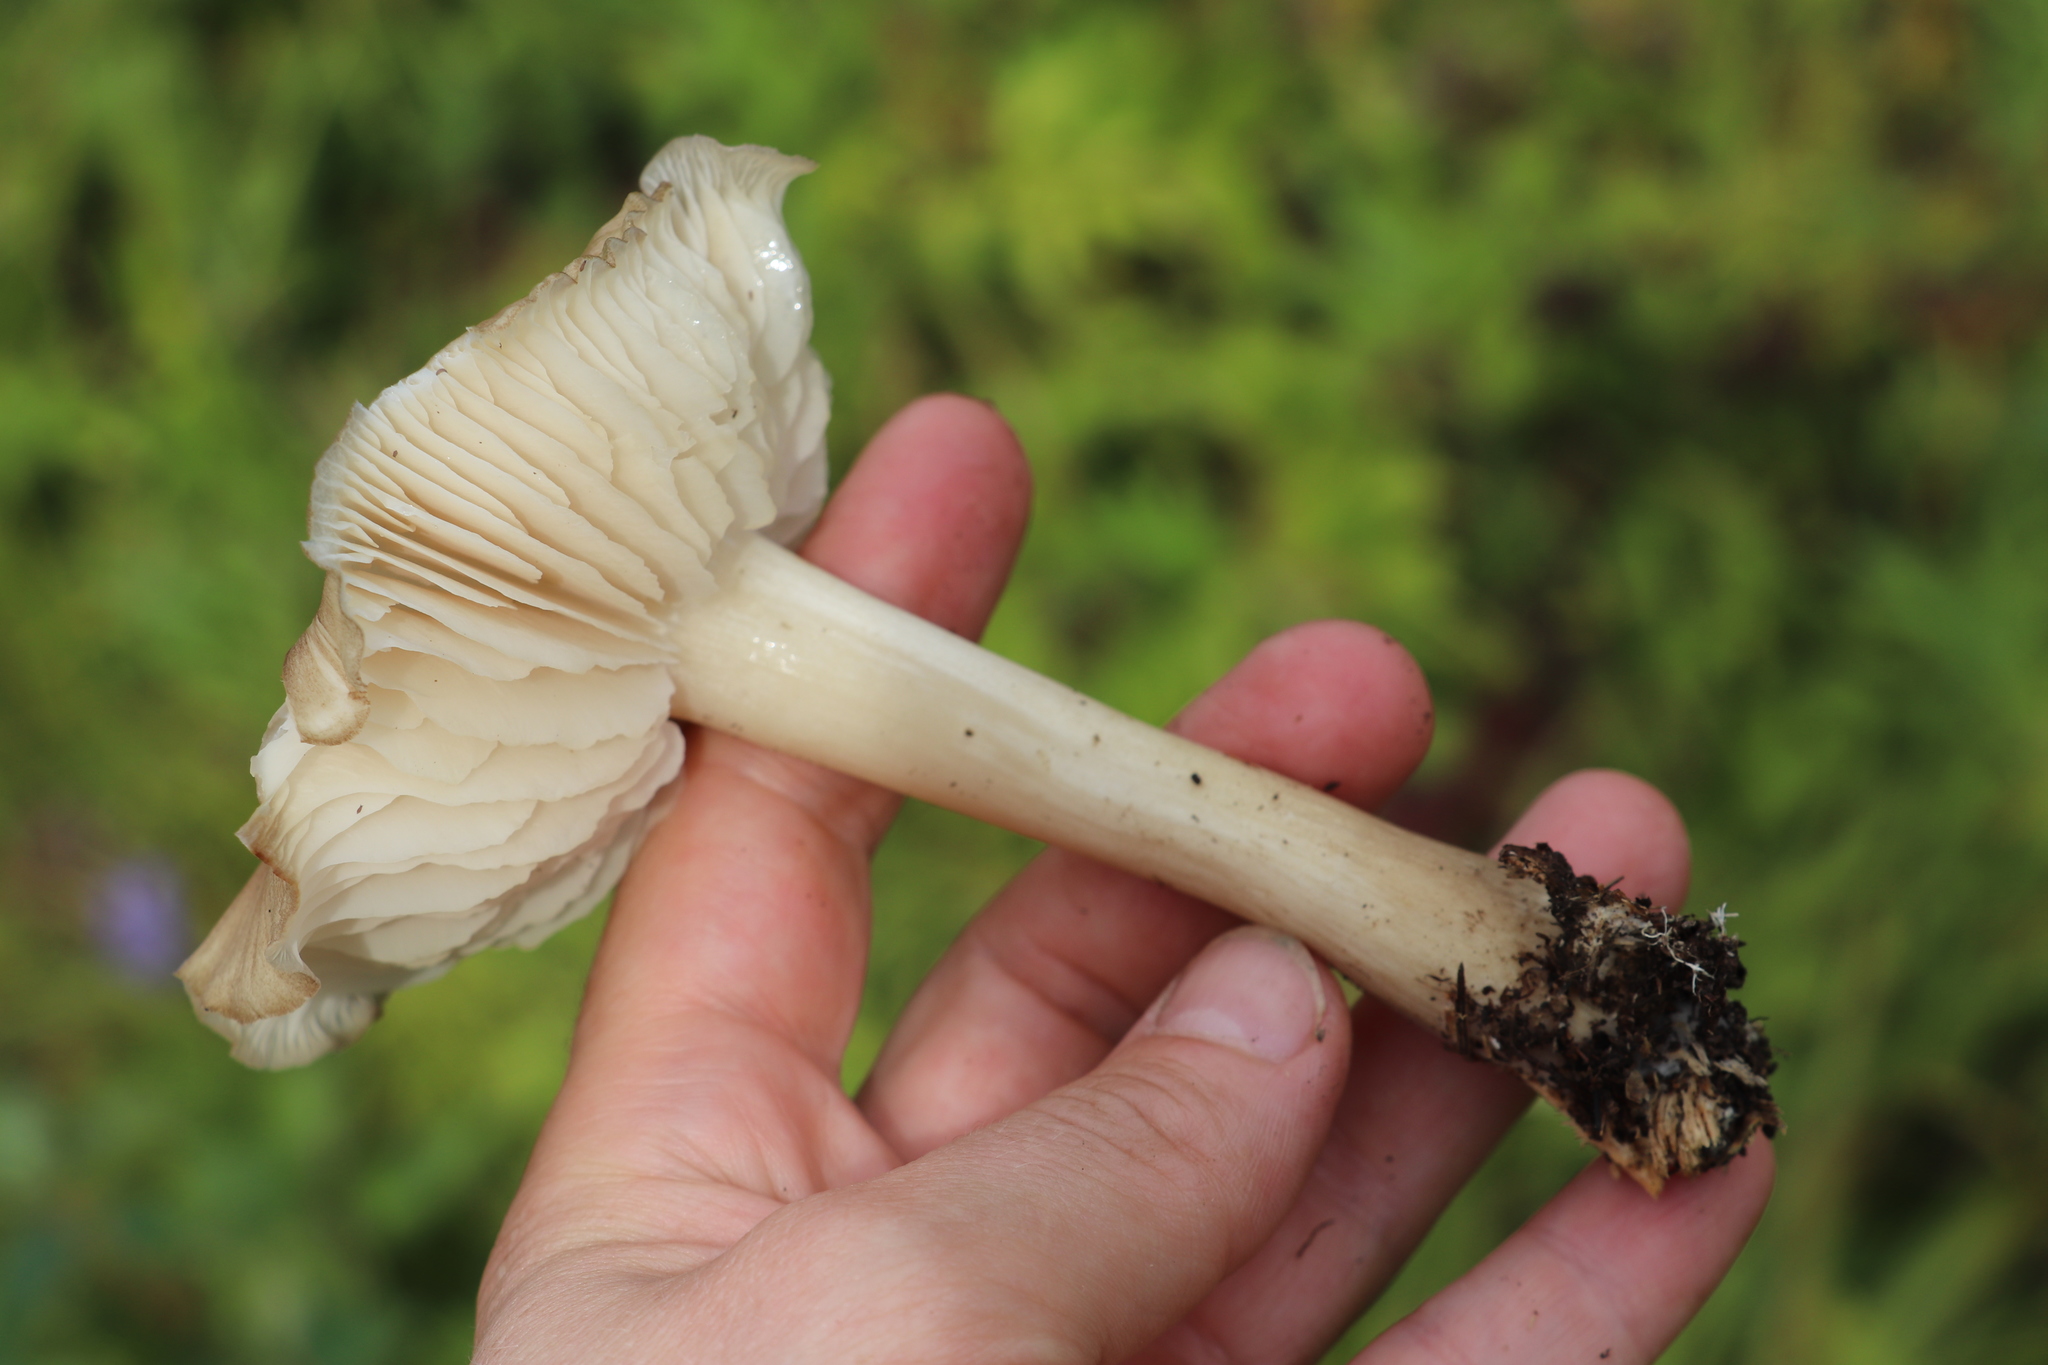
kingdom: Fungi
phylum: Basidiomycota
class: Agaricomycetes
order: Agaricales
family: Tricholomataceae
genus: Megacollybia
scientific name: Megacollybia platyphylla
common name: Whitelaced shank
